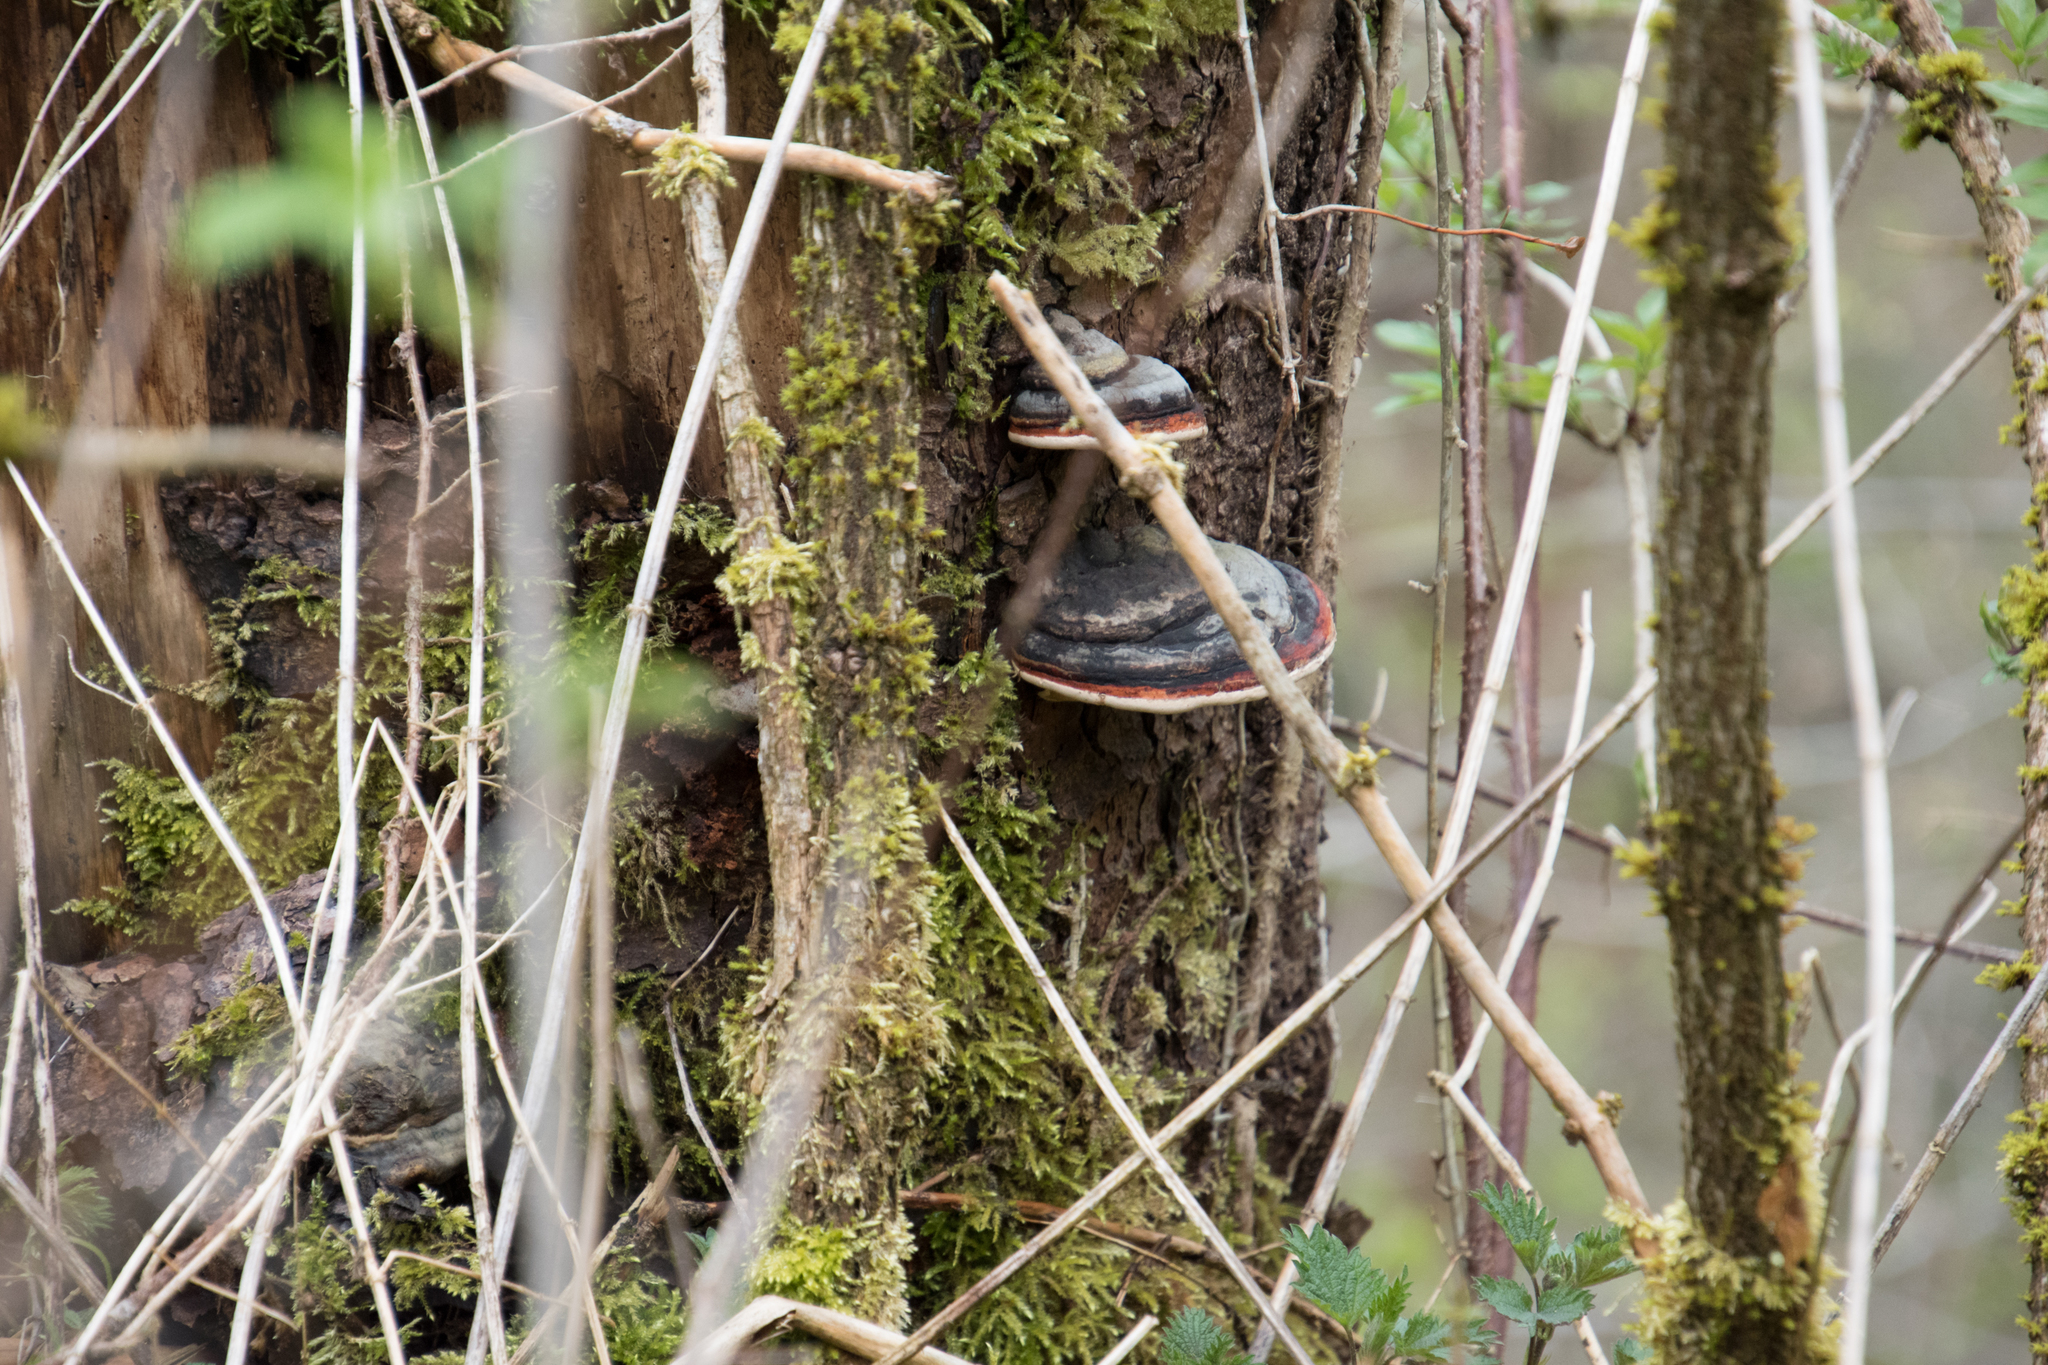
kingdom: Fungi
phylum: Basidiomycota
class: Agaricomycetes
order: Polyporales
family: Fomitopsidaceae
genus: Fomitopsis
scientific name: Fomitopsis pinicola
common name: Red-belted bracket
